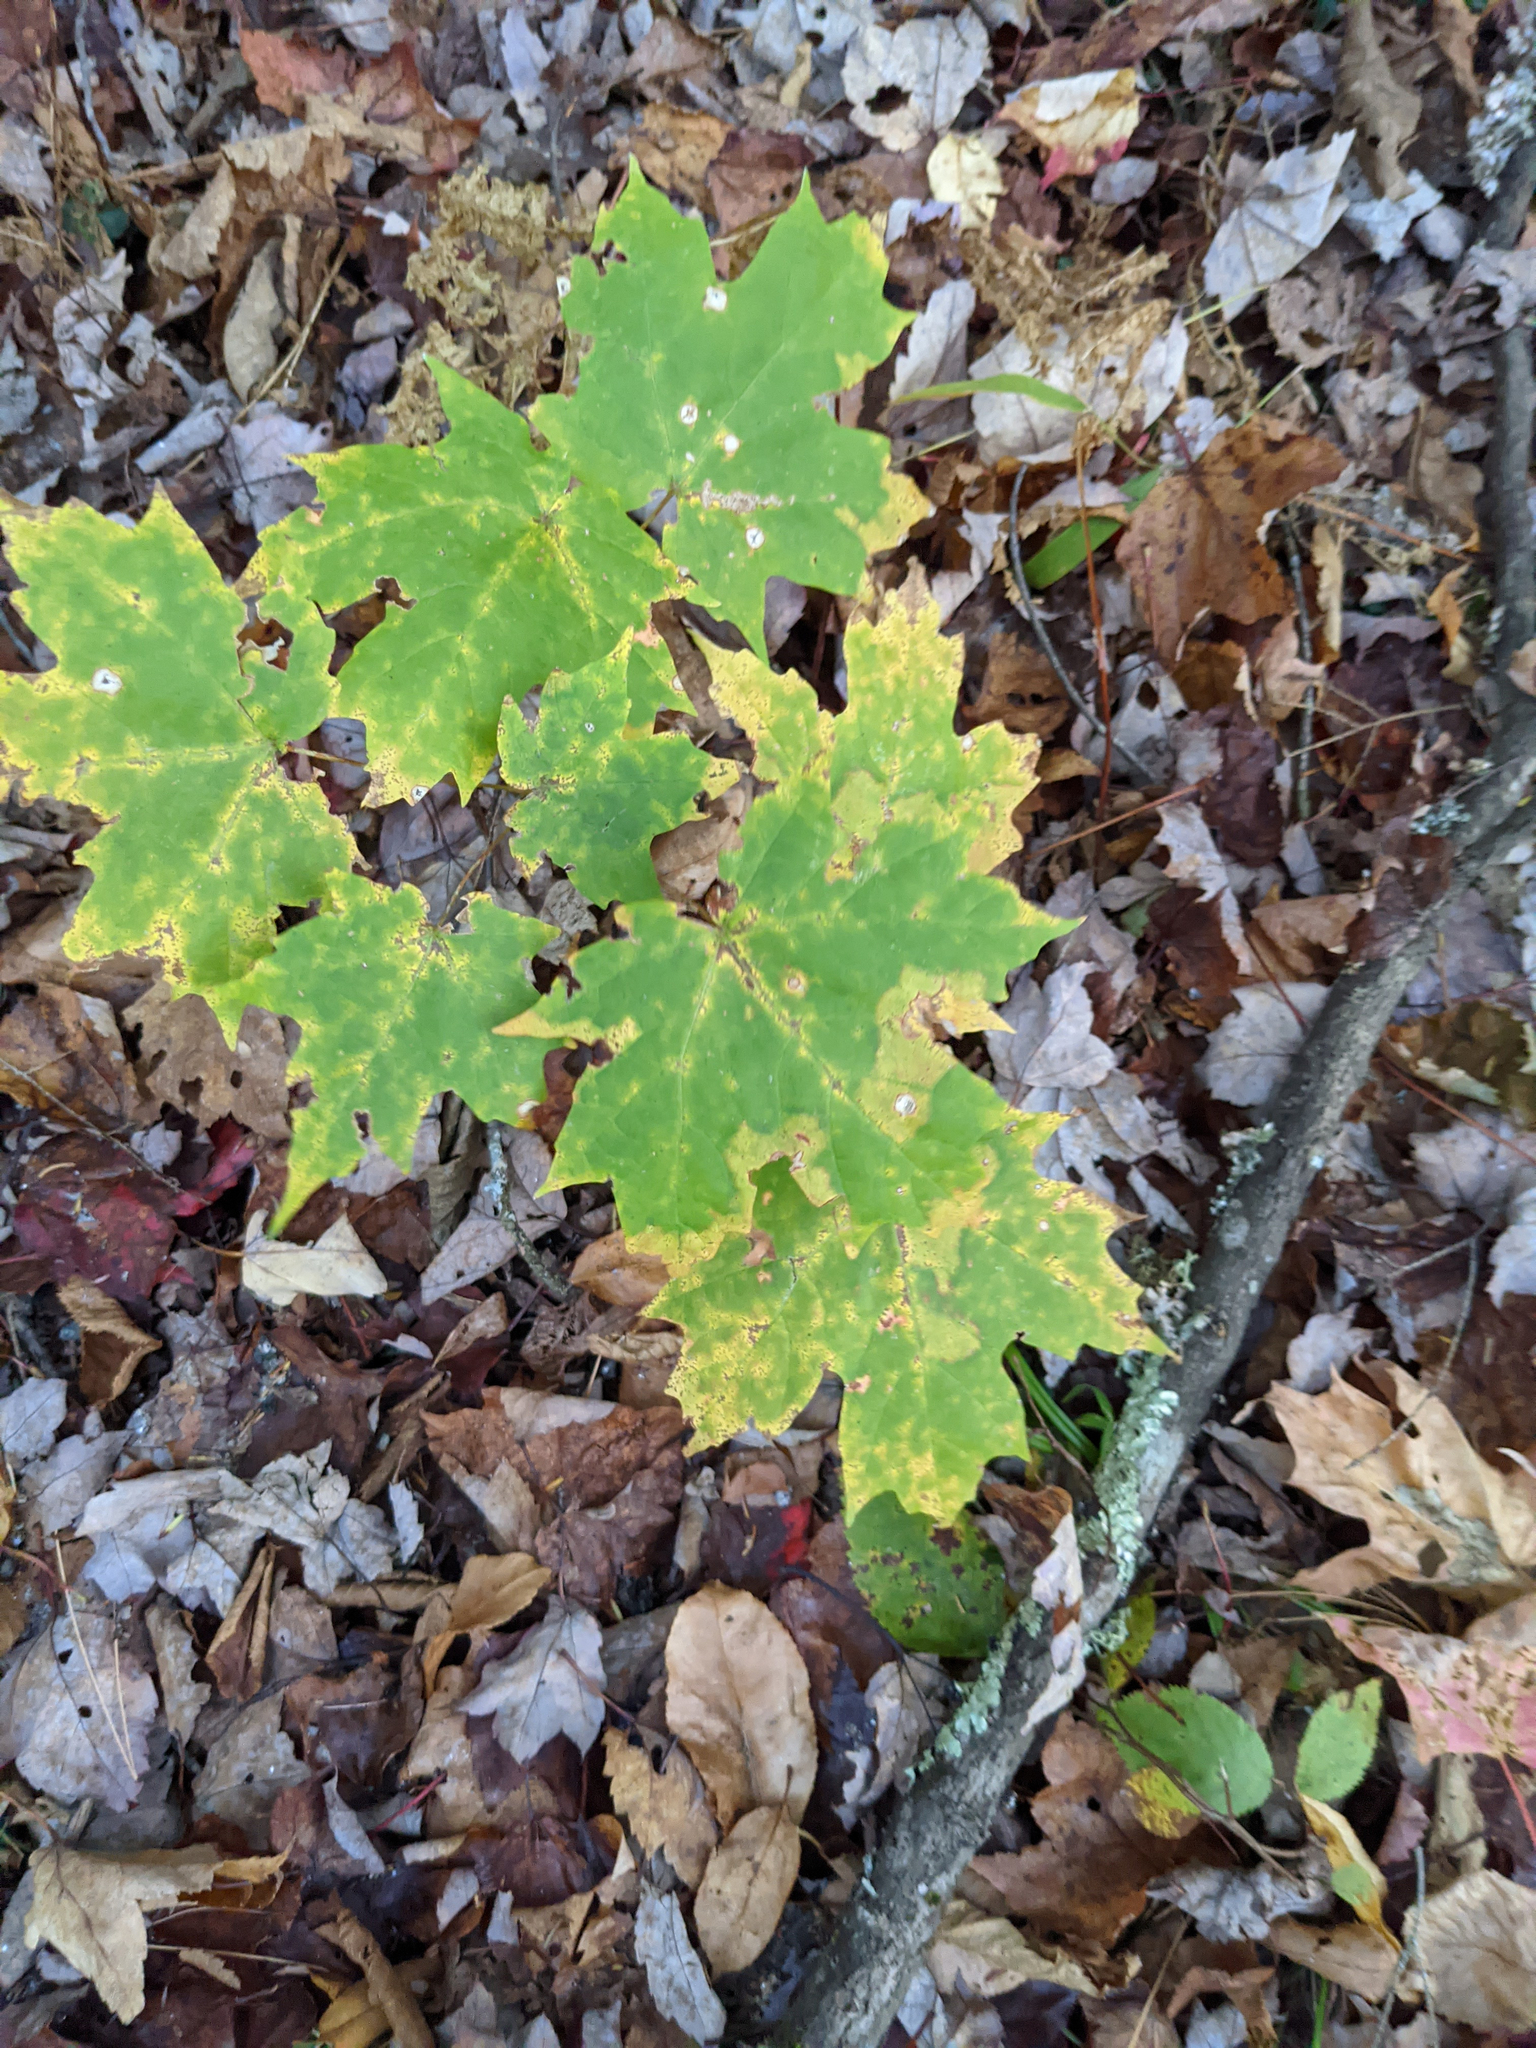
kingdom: Plantae
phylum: Tracheophyta
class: Magnoliopsida
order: Sapindales
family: Sapindaceae
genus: Acer
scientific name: Acer saccharum
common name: Sugar maple
